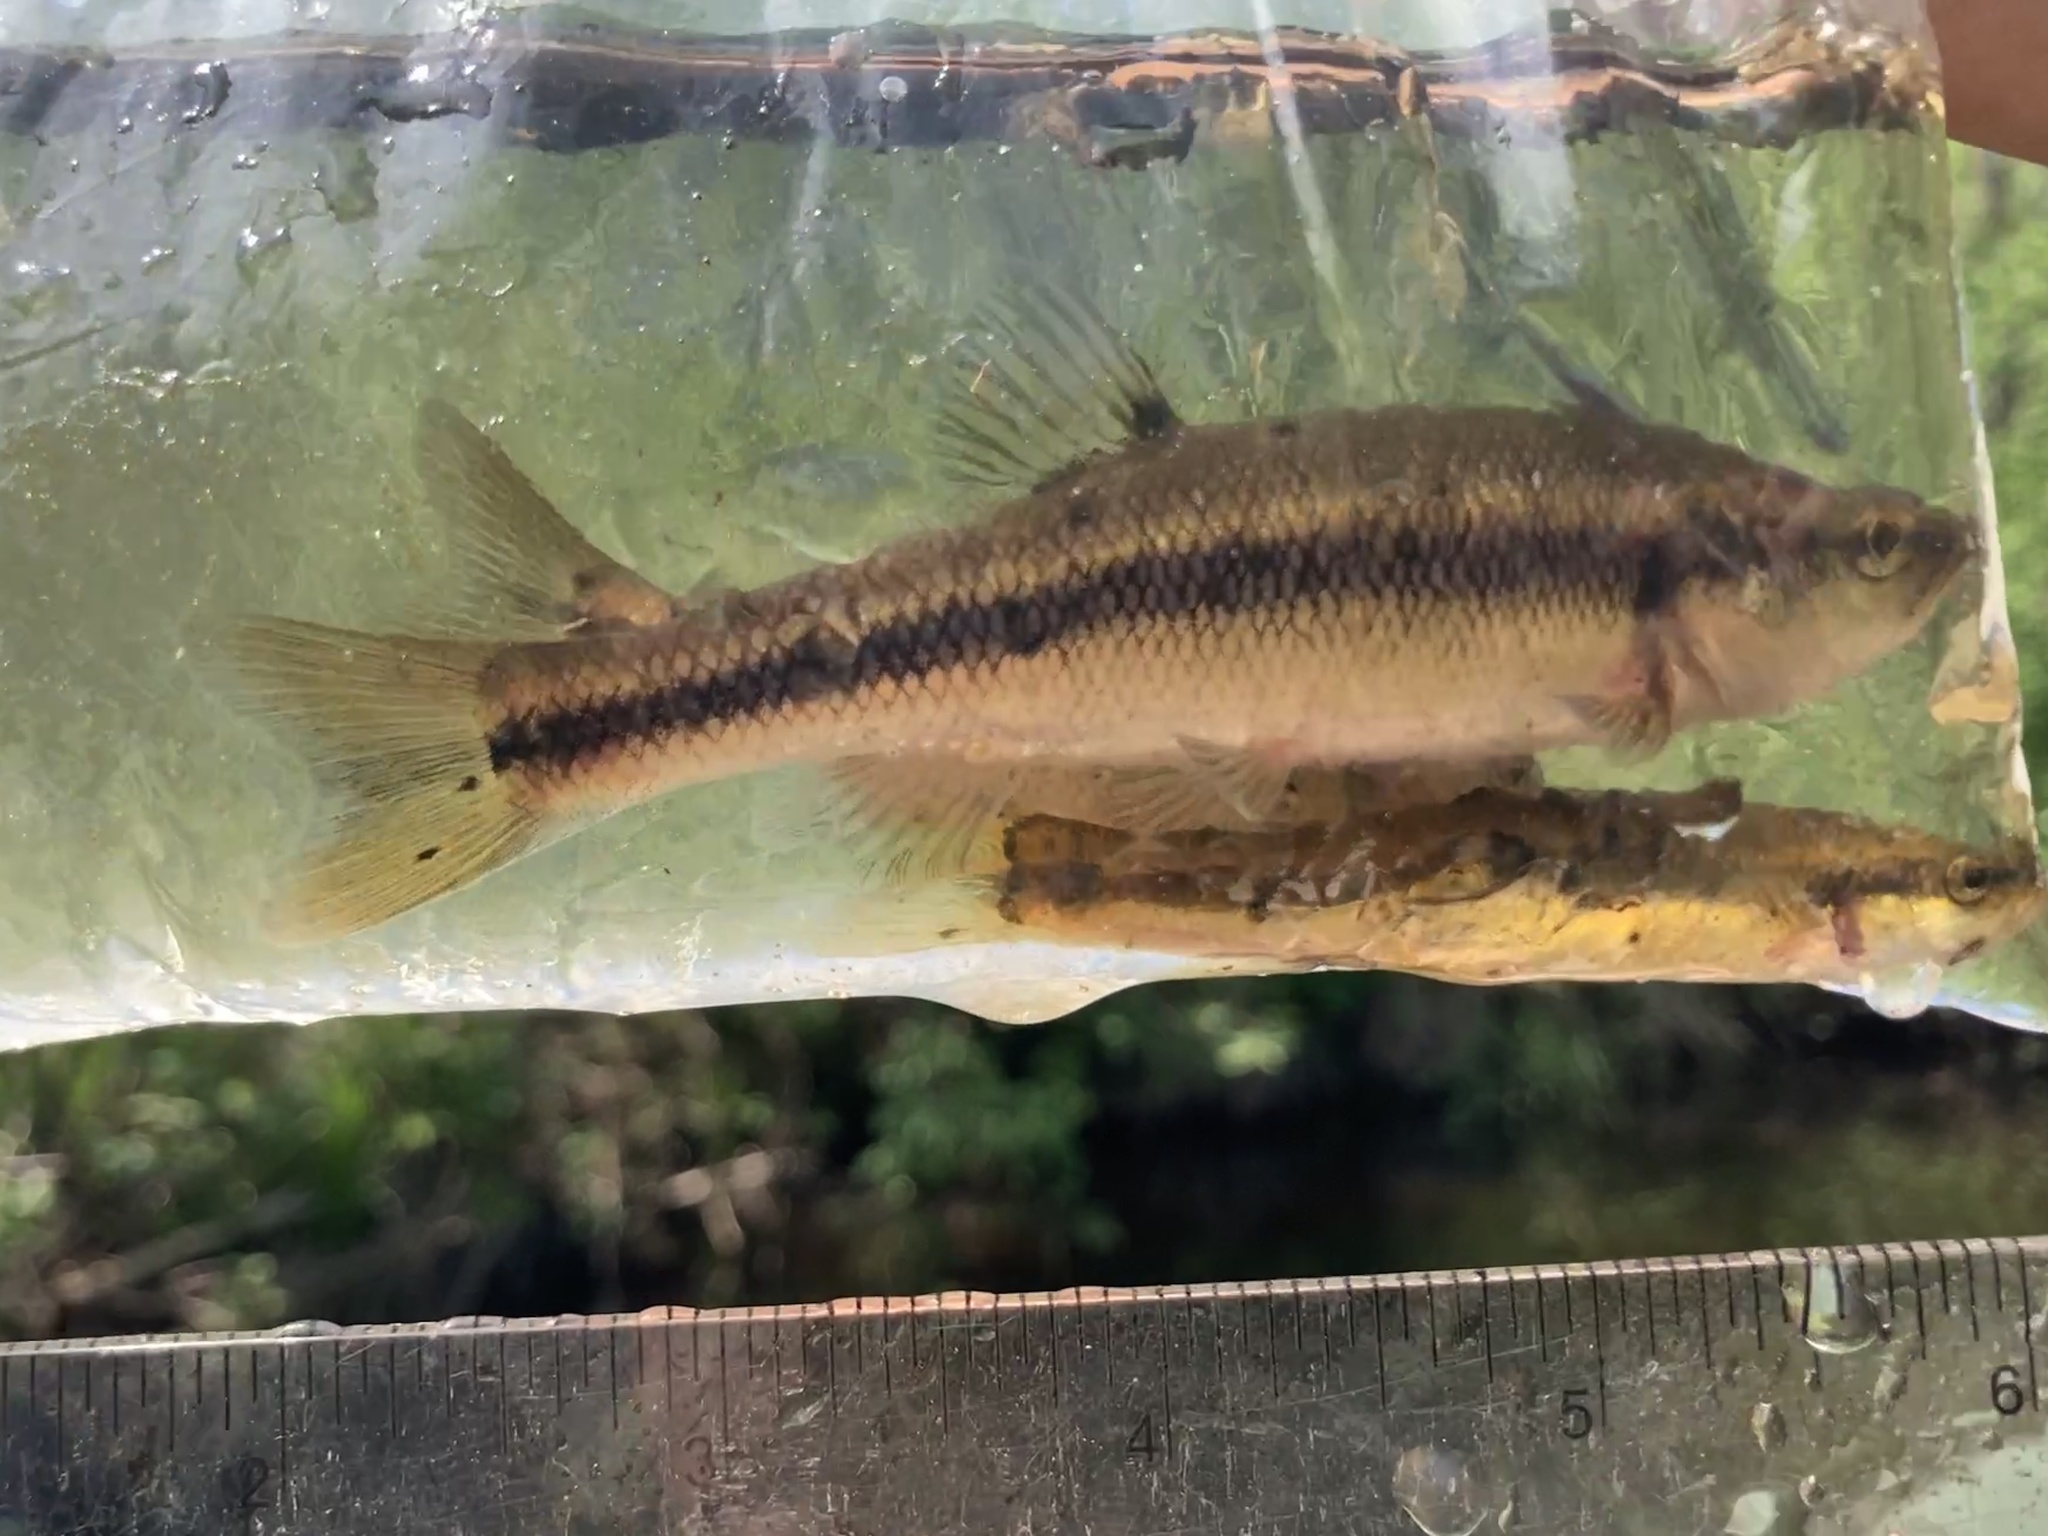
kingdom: Animalia
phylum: Chordata
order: Cypriniformes
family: Cyprinidae
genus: Semotilus
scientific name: Semotilus atromaculatus
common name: Creek chub
